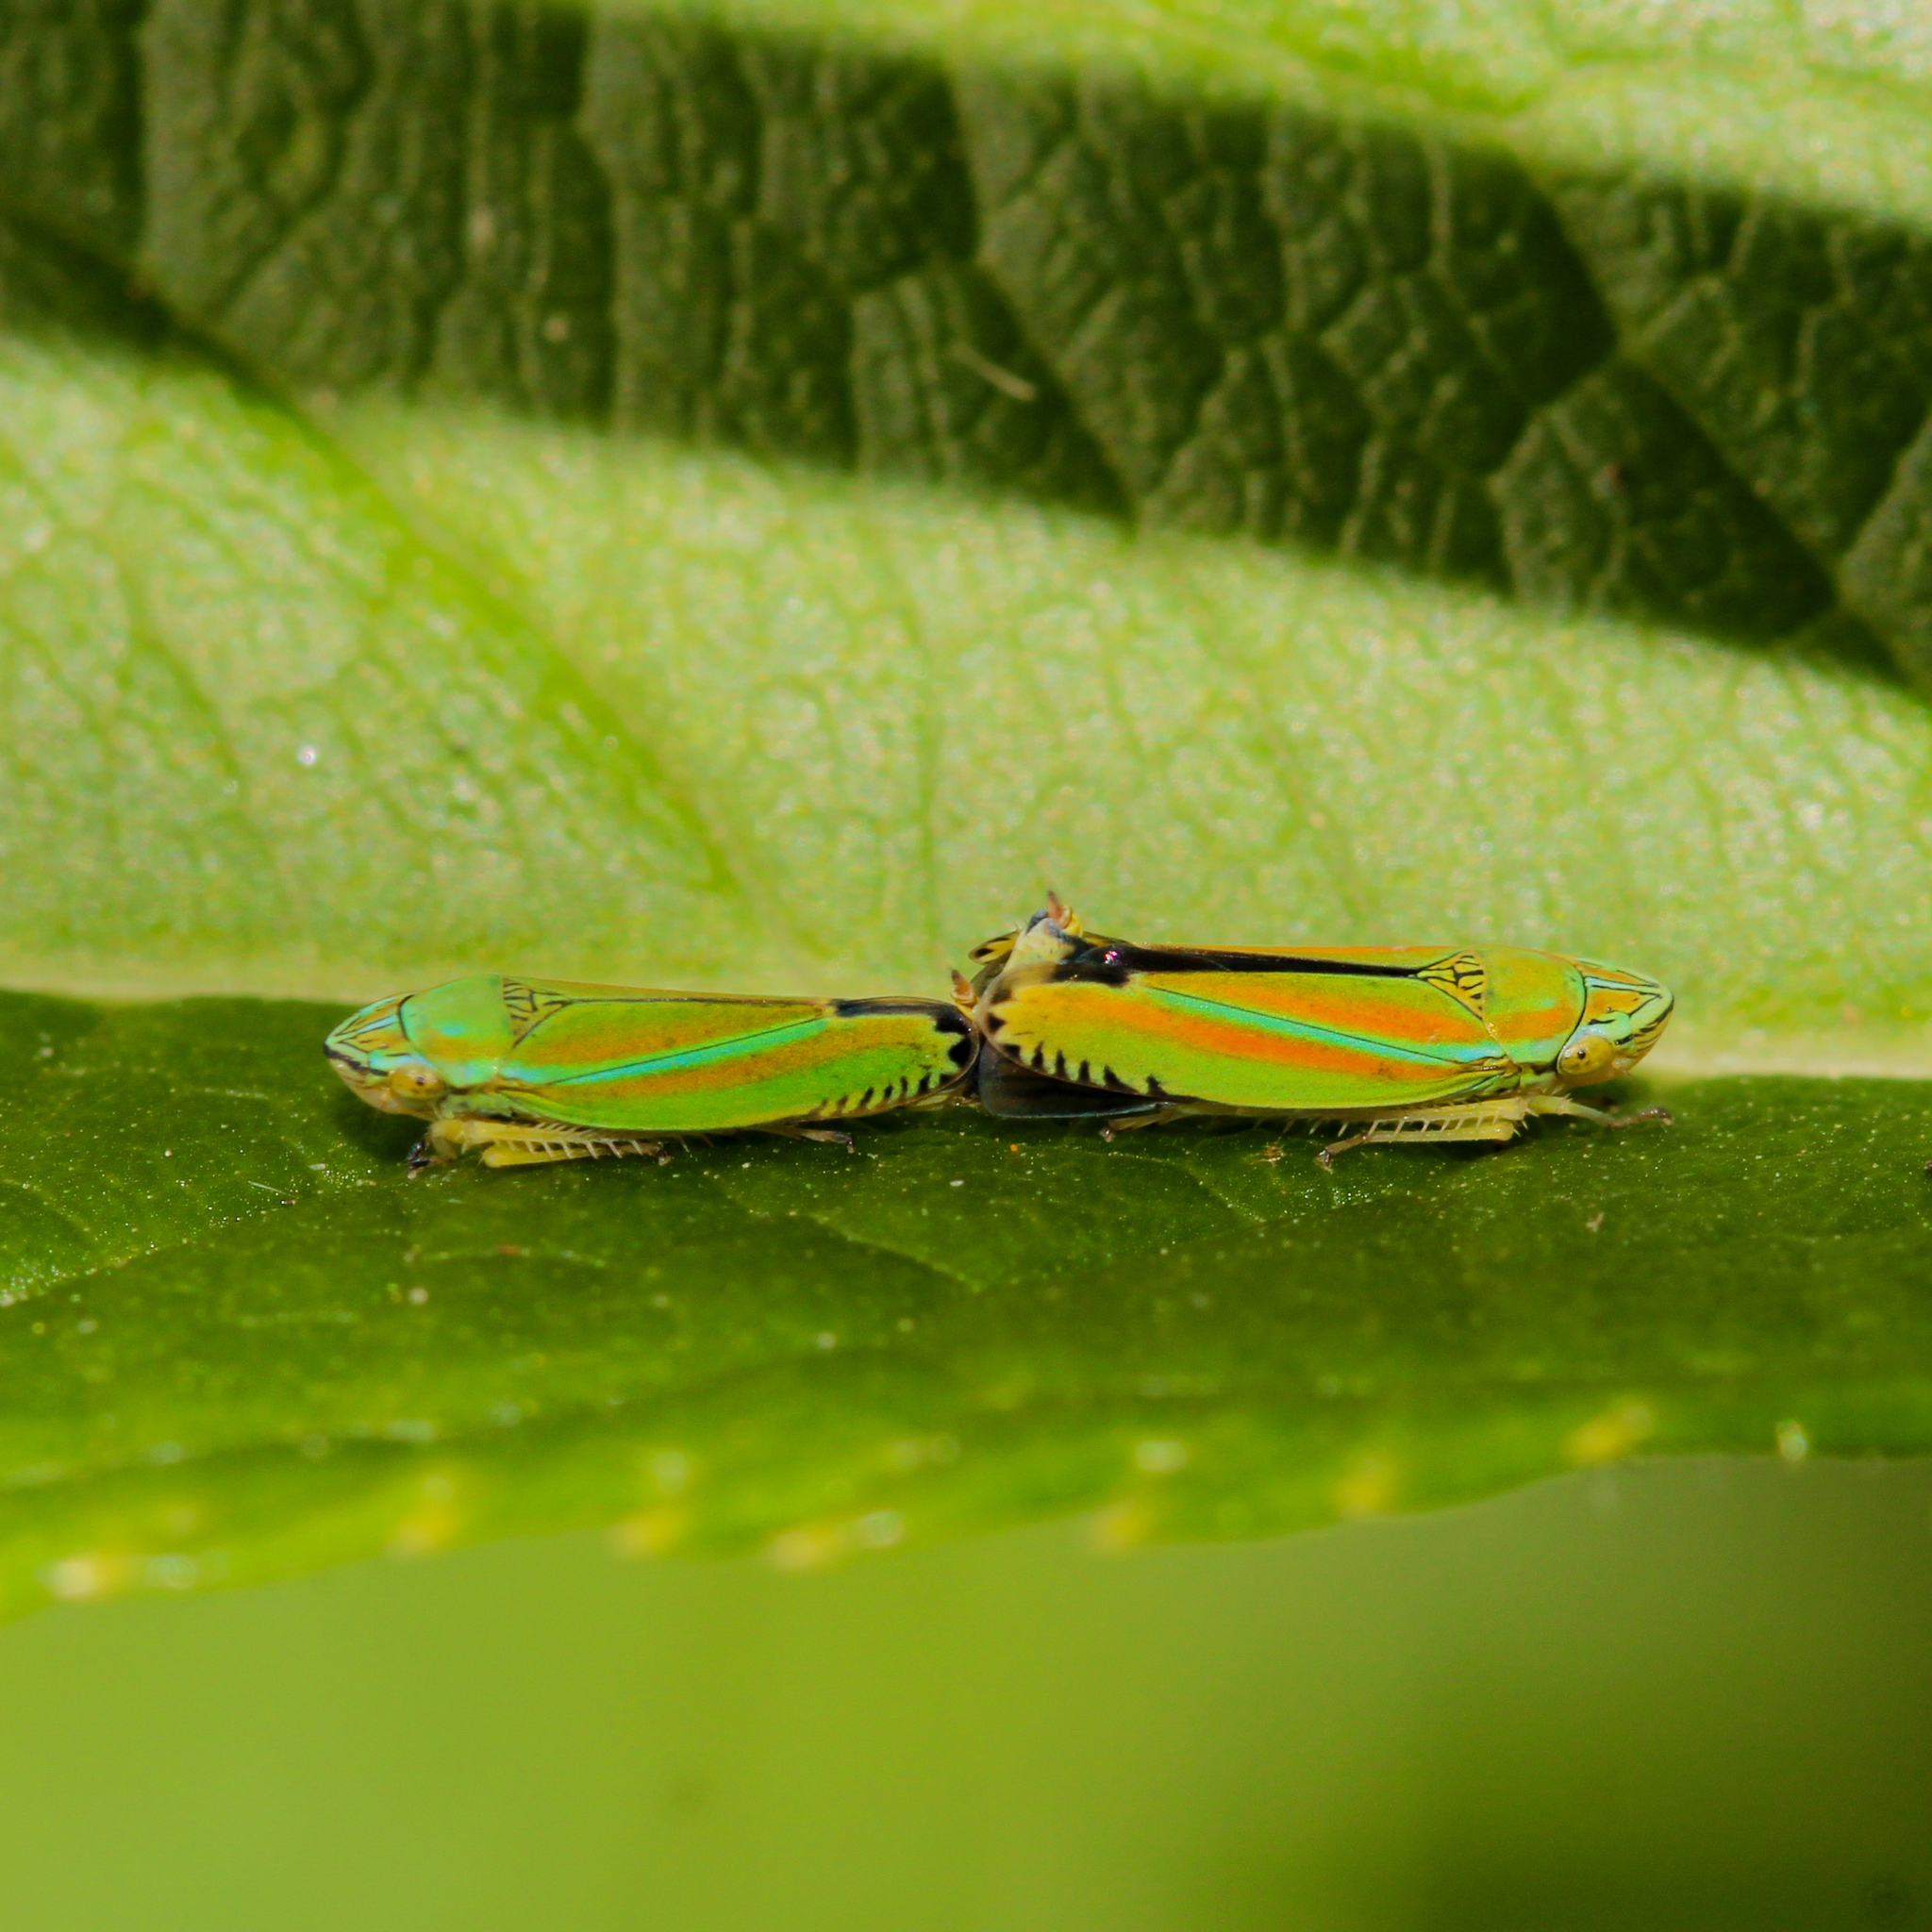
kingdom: Animalia
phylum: Arthropoda
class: Insecta
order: Hemiptera
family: Cicadellidae
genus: Graphocephala
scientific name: Graphocephala versuta
